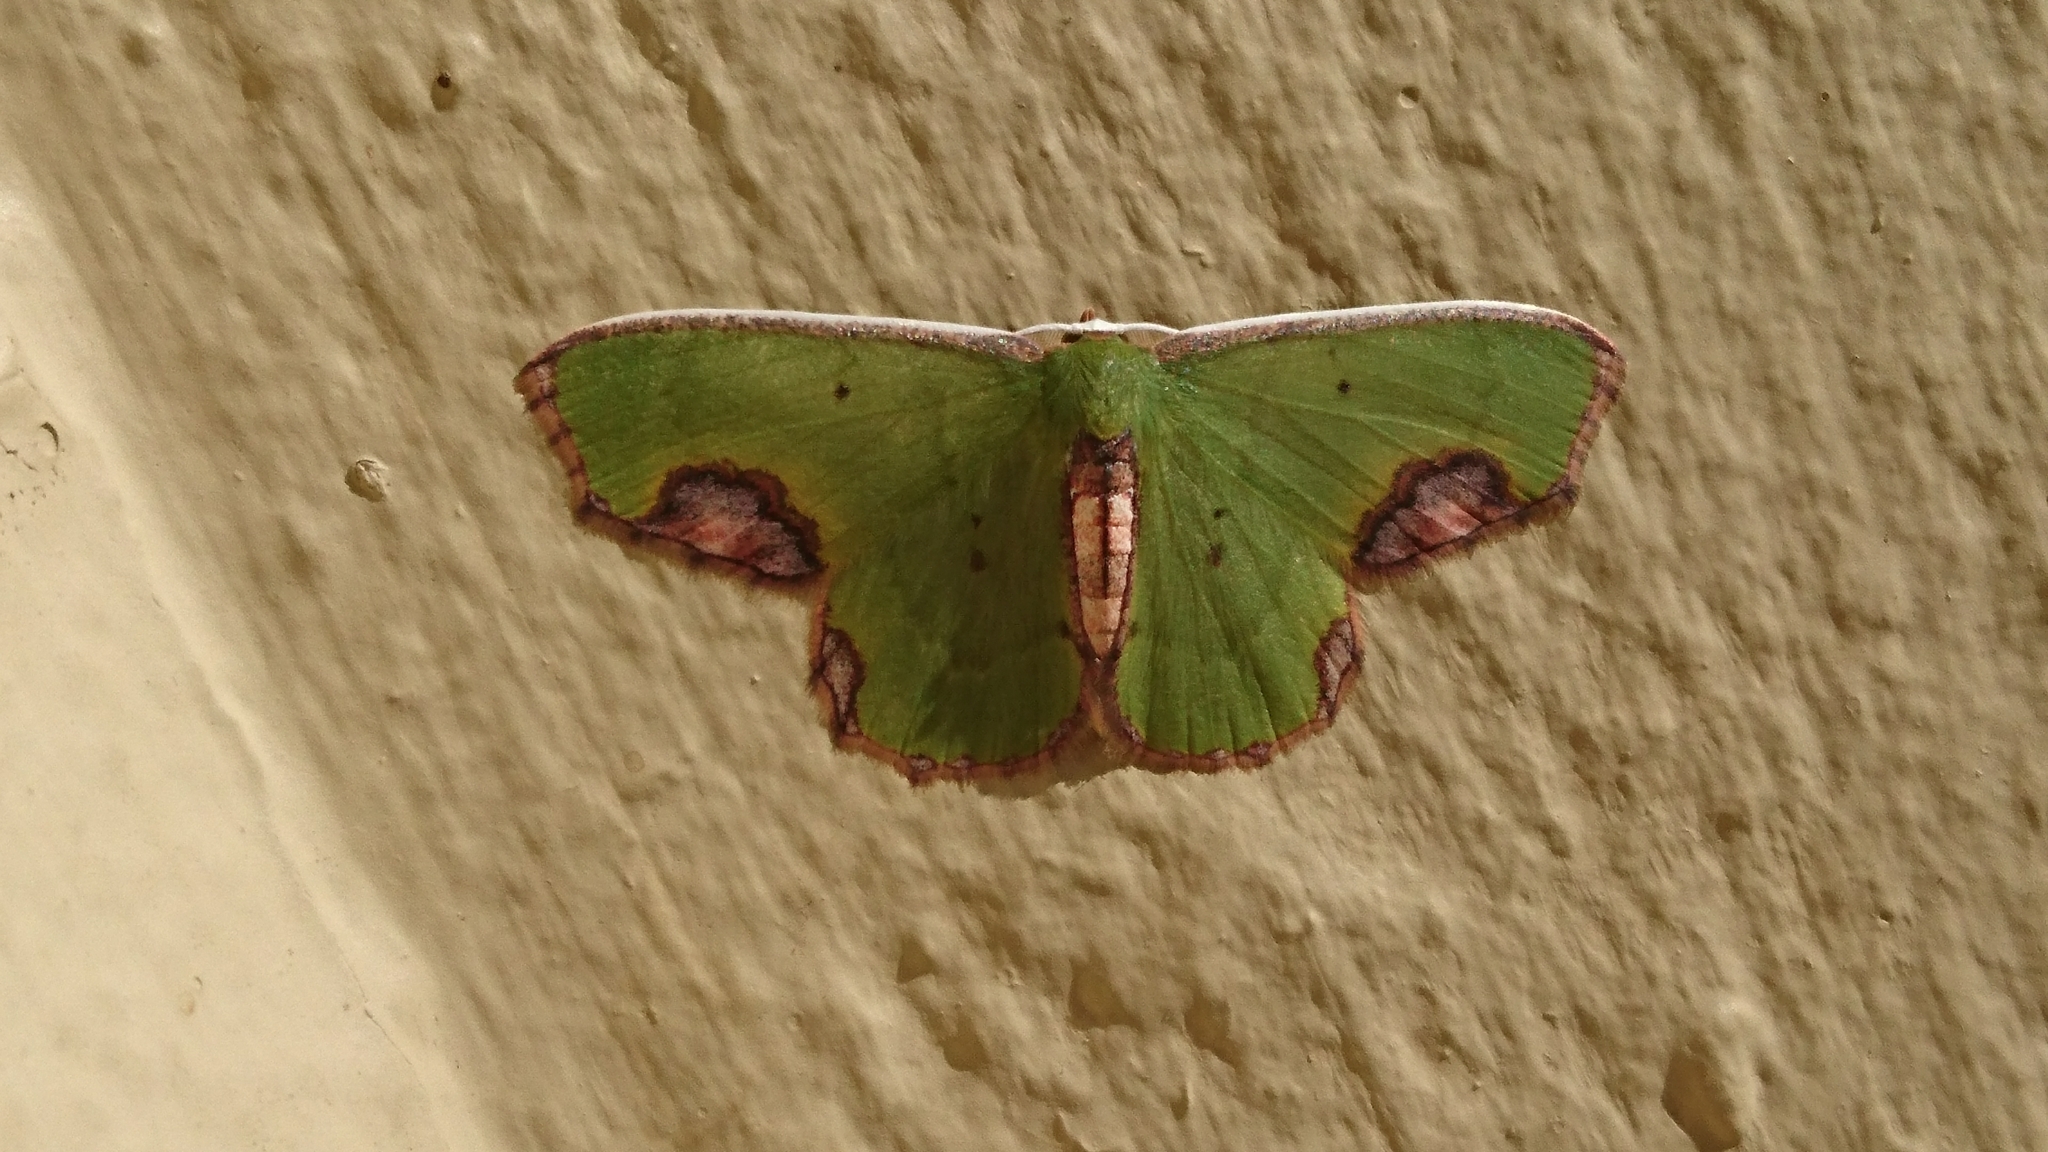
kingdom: Animalia
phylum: Arthropoda
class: Insecta
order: Lepidoptera
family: Geometridae
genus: Spaniocentra
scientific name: Spaniocentra apatelloides
